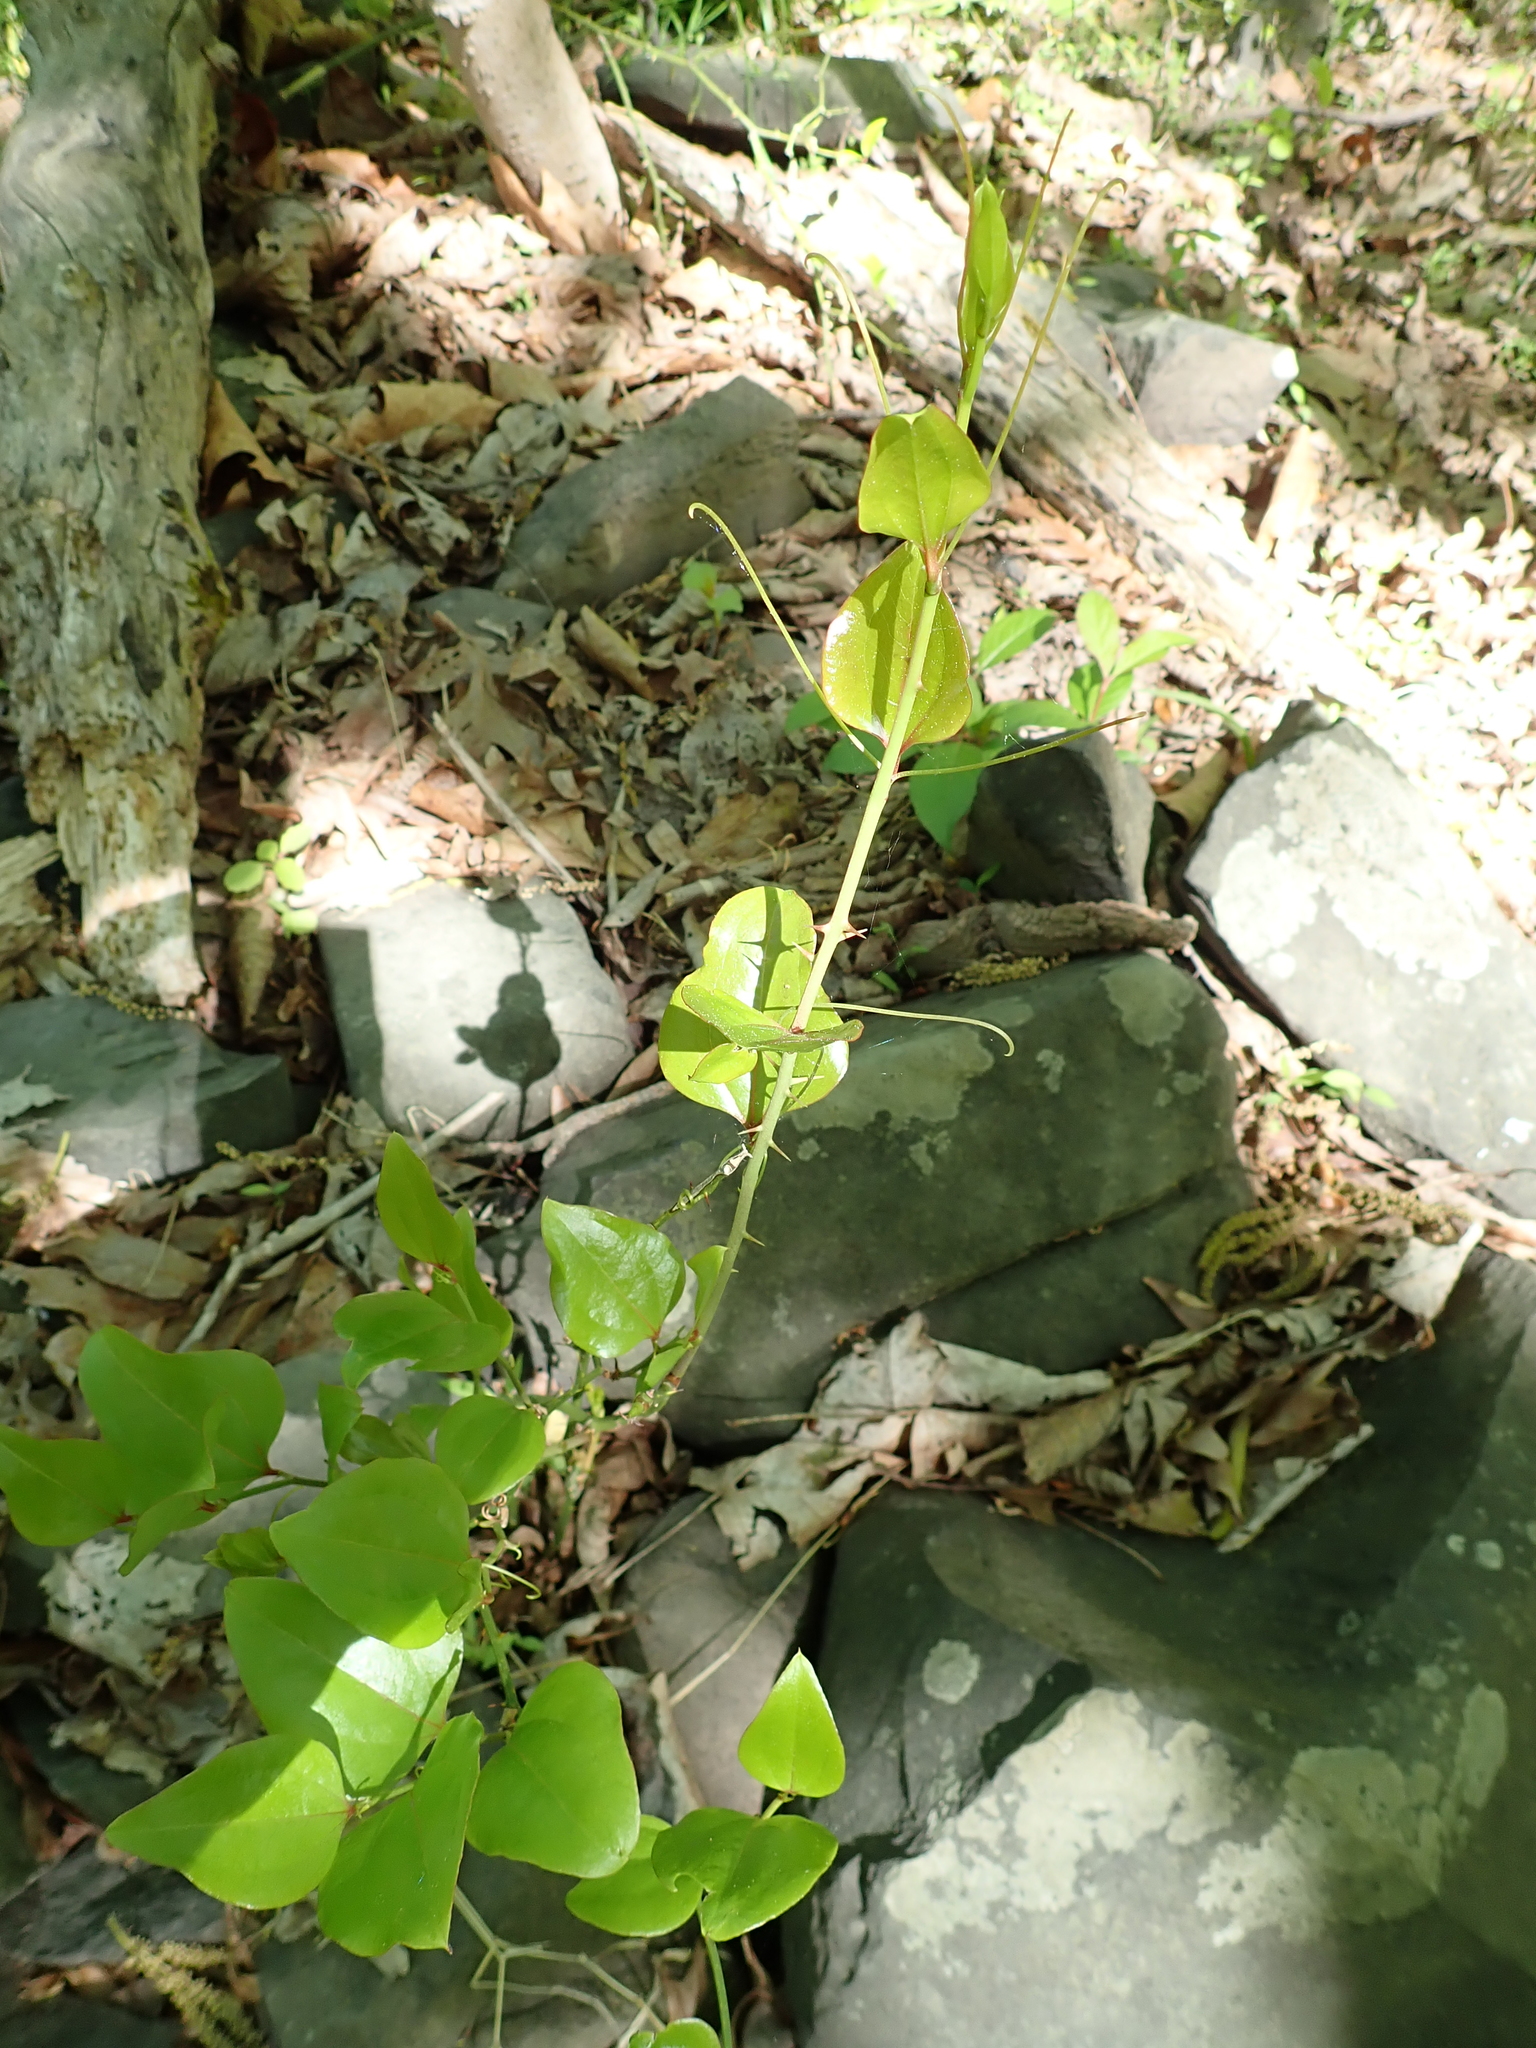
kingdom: Plantae
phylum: Tracheophyta
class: Liliopsida
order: Liliales
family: Smilacaceae
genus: Smilax
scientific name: Smilax rotundifolia
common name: Bullbriar
